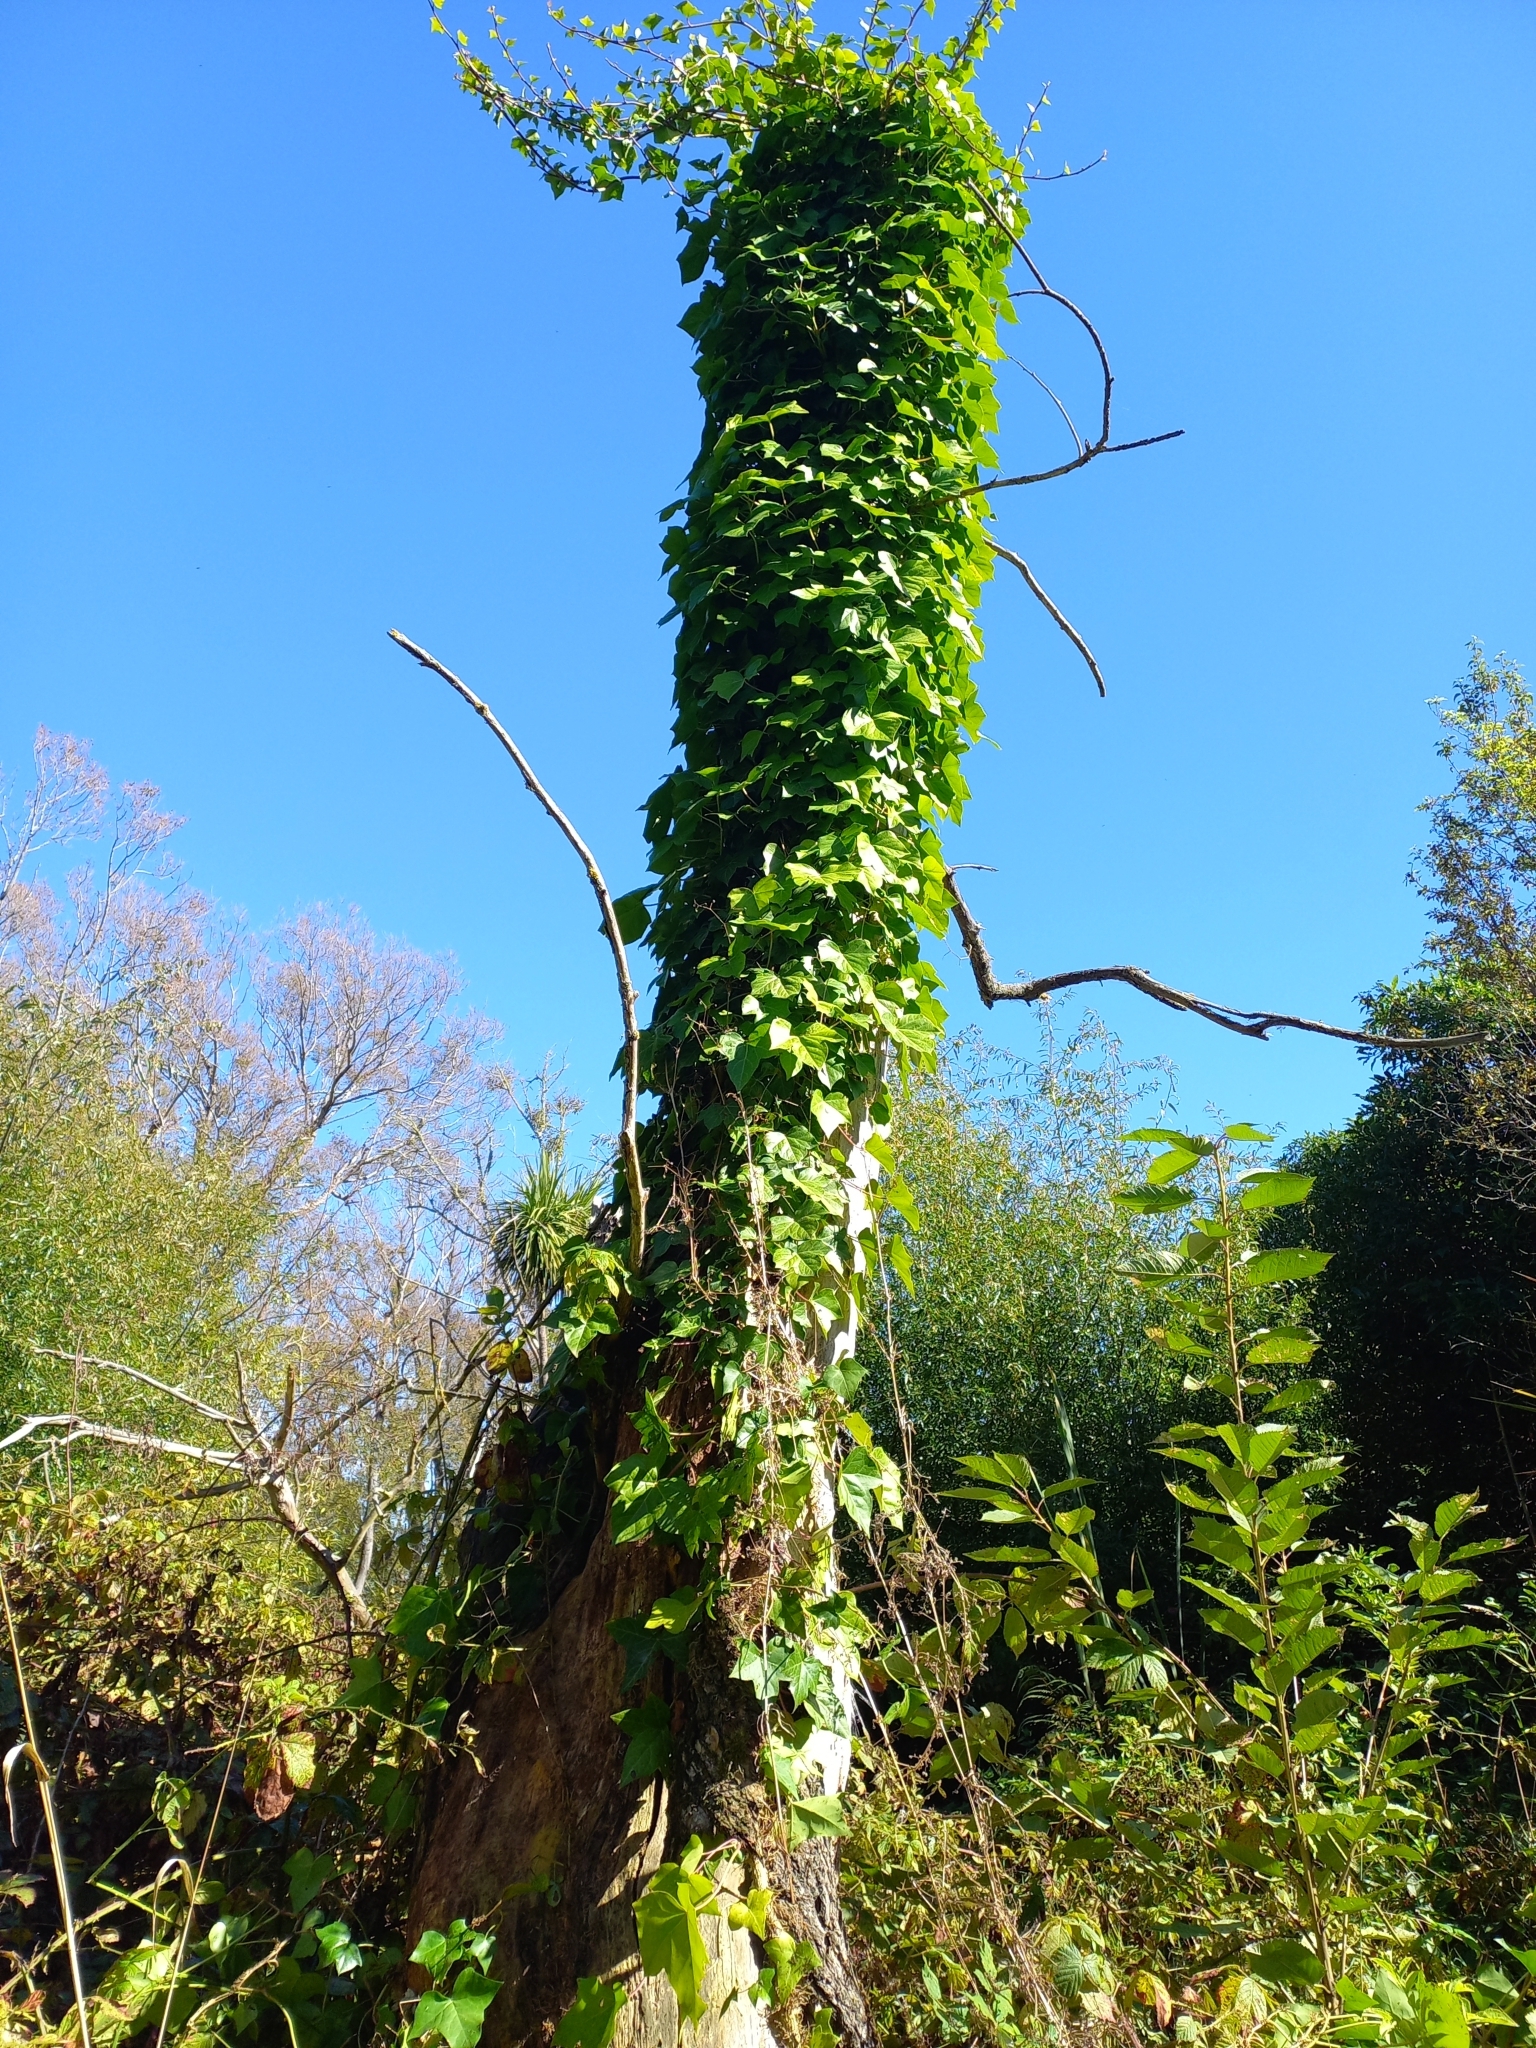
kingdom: Plantae
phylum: Tracheophyta
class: Magnoliopsida
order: Apiales
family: Araliaceae
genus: Hedera
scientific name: Hedera helix
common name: Ivy
